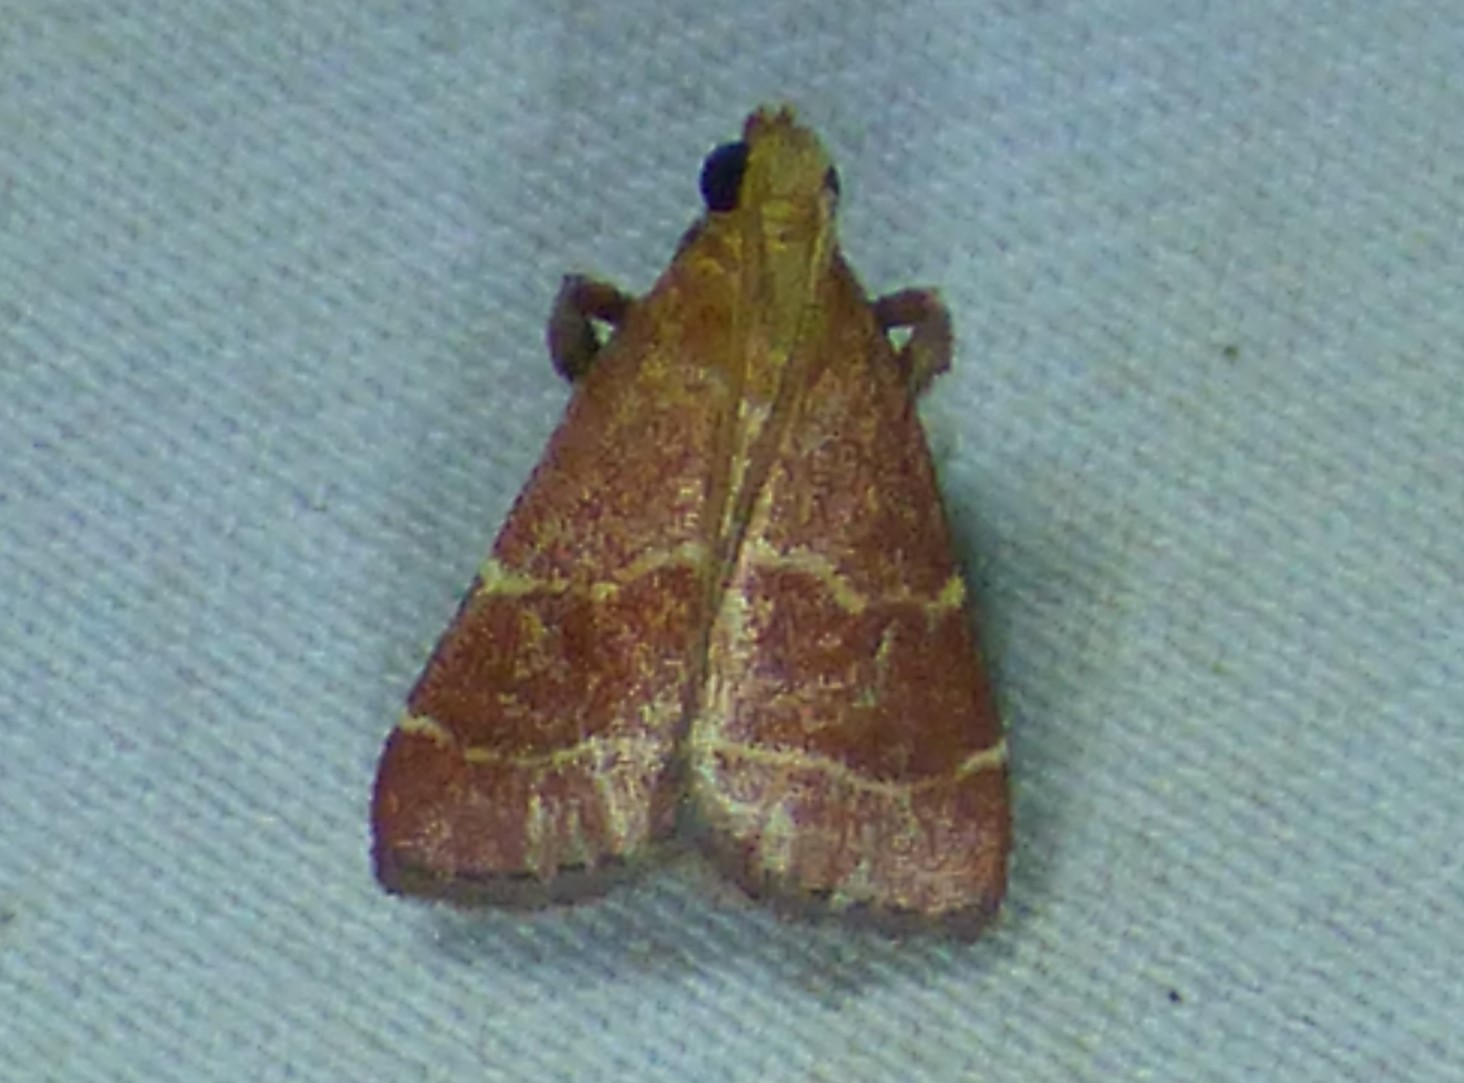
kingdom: Animalia
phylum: Arthropoda
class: Insecta
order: Lepidoptera
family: Pyralidae
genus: Arta
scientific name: Arta statalis
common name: Posturing arta moth
